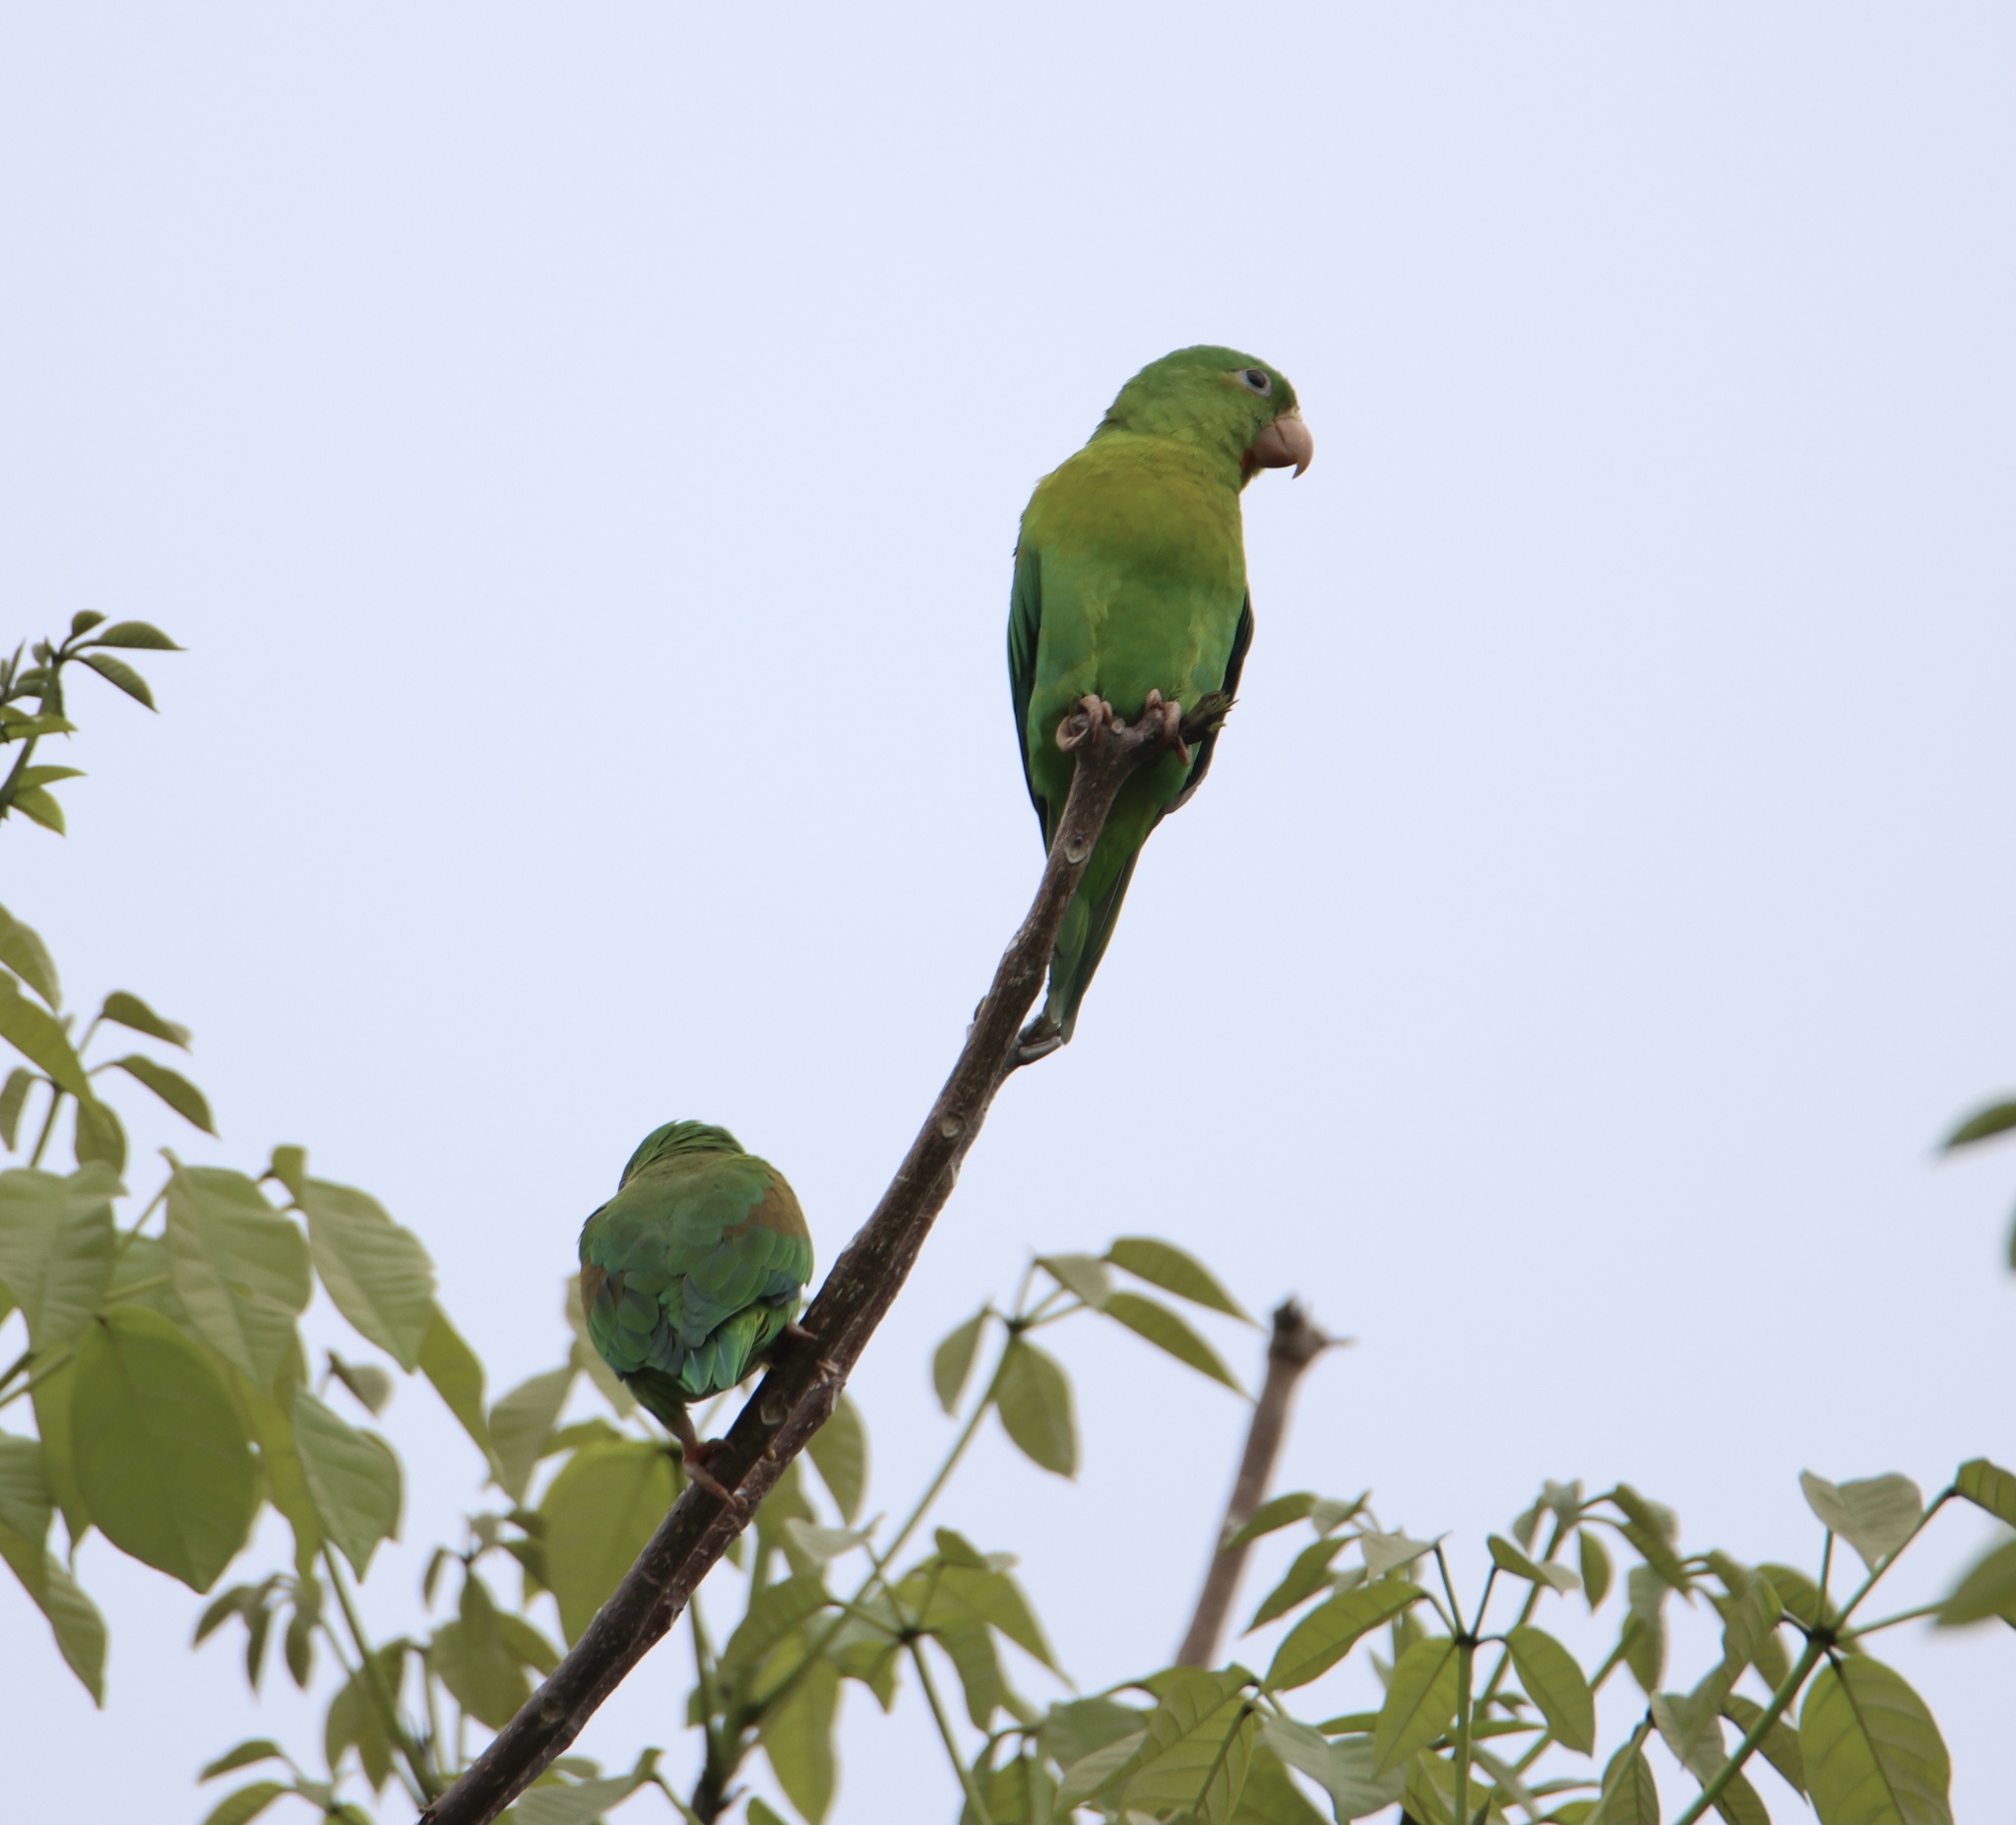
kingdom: Animalia
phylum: Chordata
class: Aves
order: Psittaciformes
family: Psittacidae
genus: Brotogeris
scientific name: Brotogeris jugularis
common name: Orange-chinned parakeet
